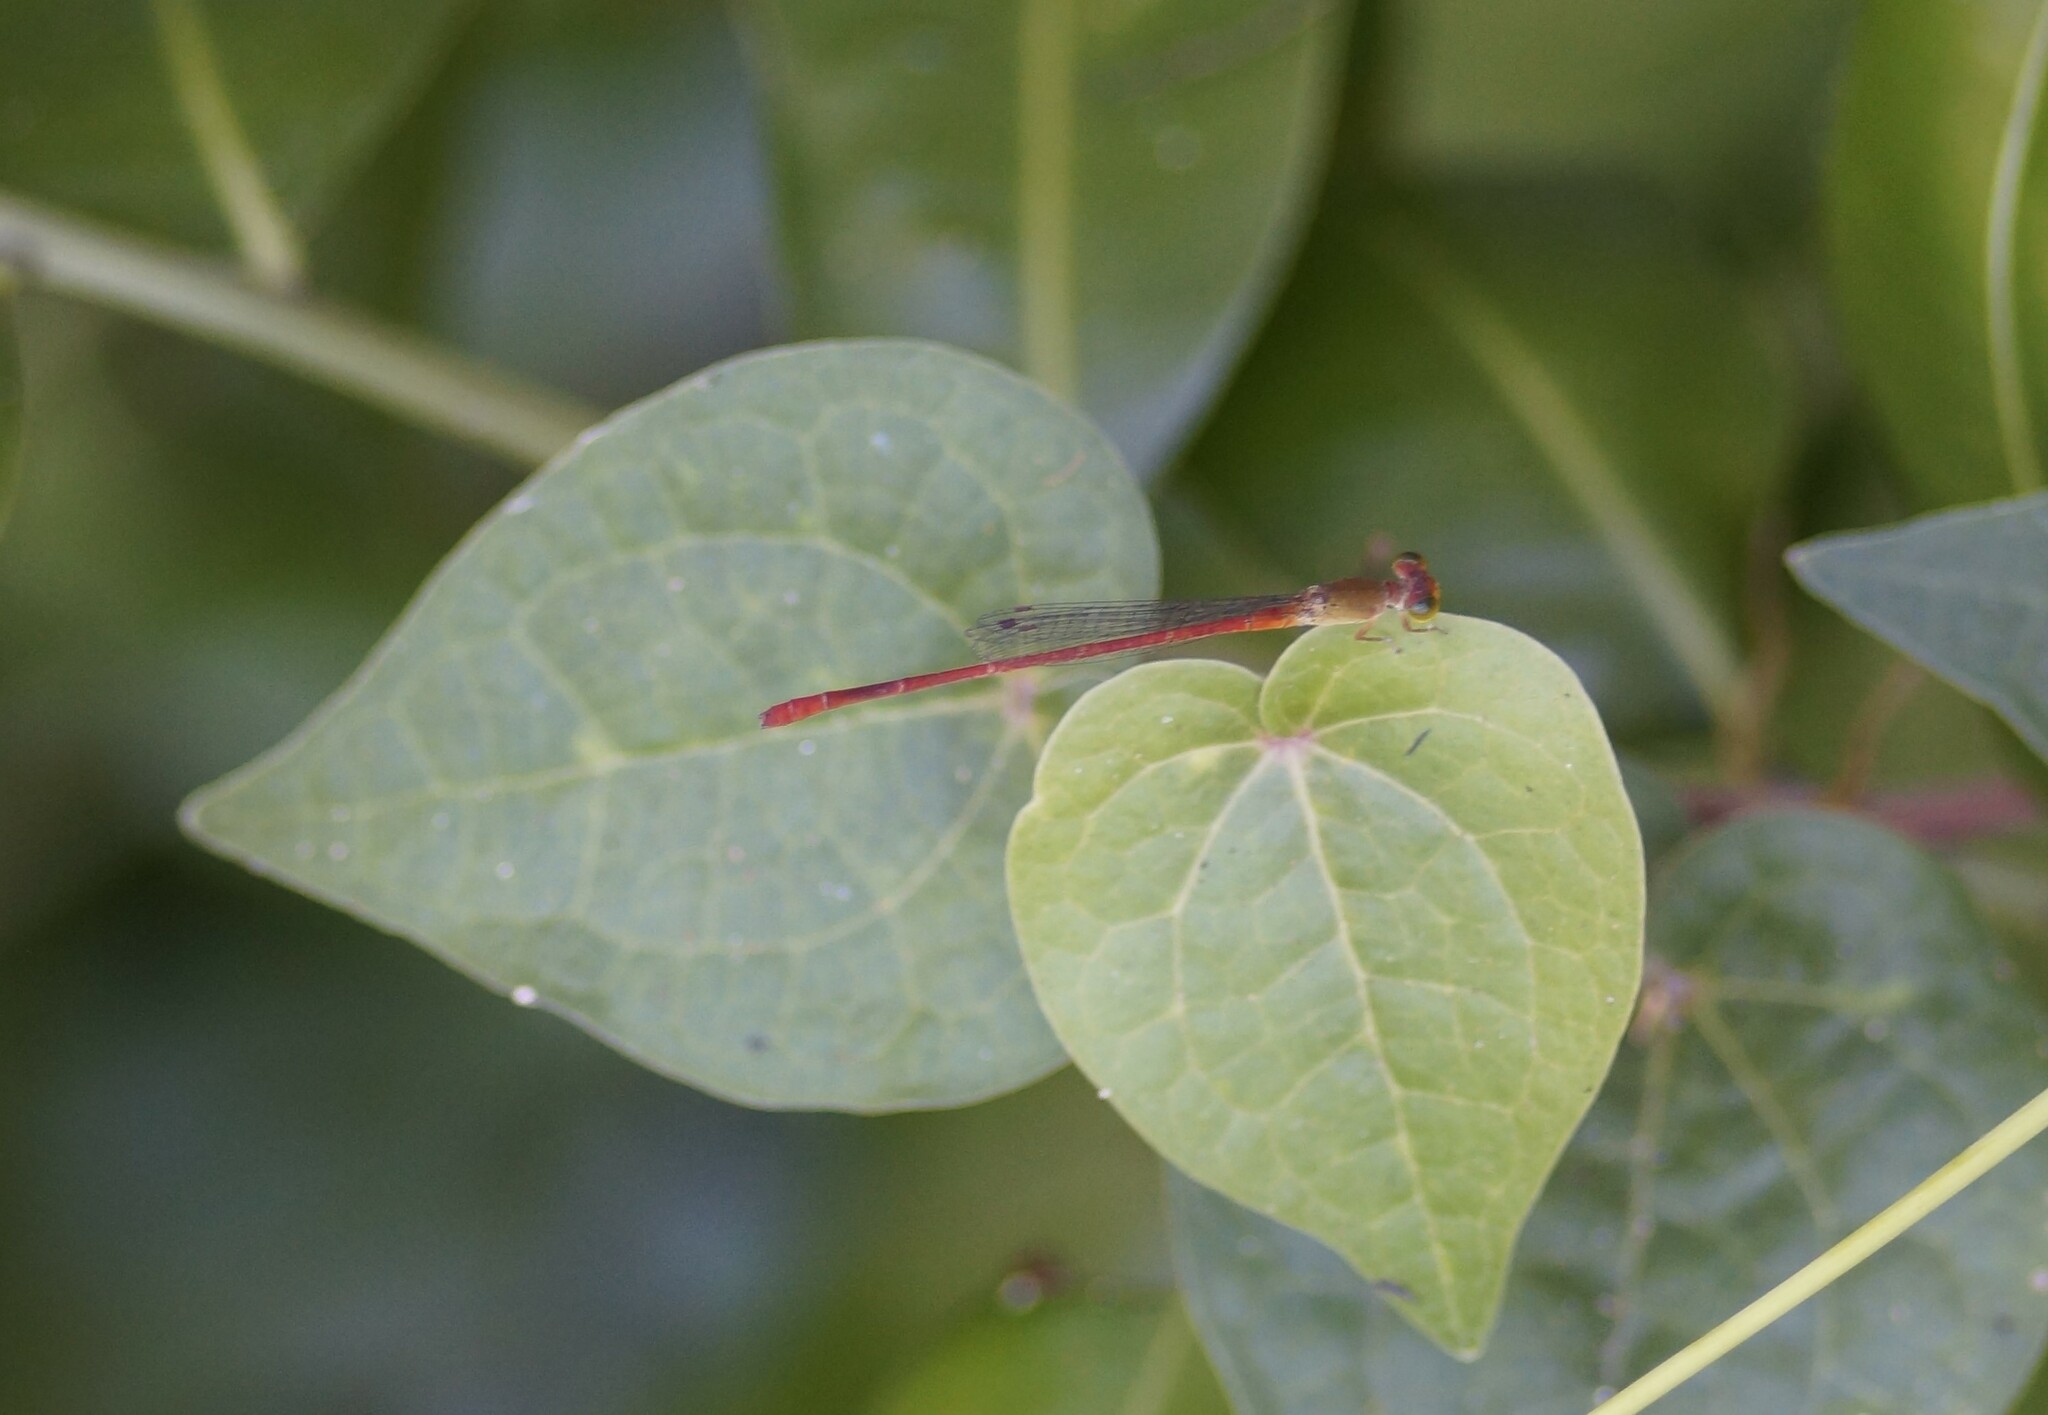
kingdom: Animalia
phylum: Arthropoda
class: Insecta
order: Odonata
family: Coenagrionidae
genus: Ceriagrion
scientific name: Ceriagrion aeruginosum
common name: Redtail
